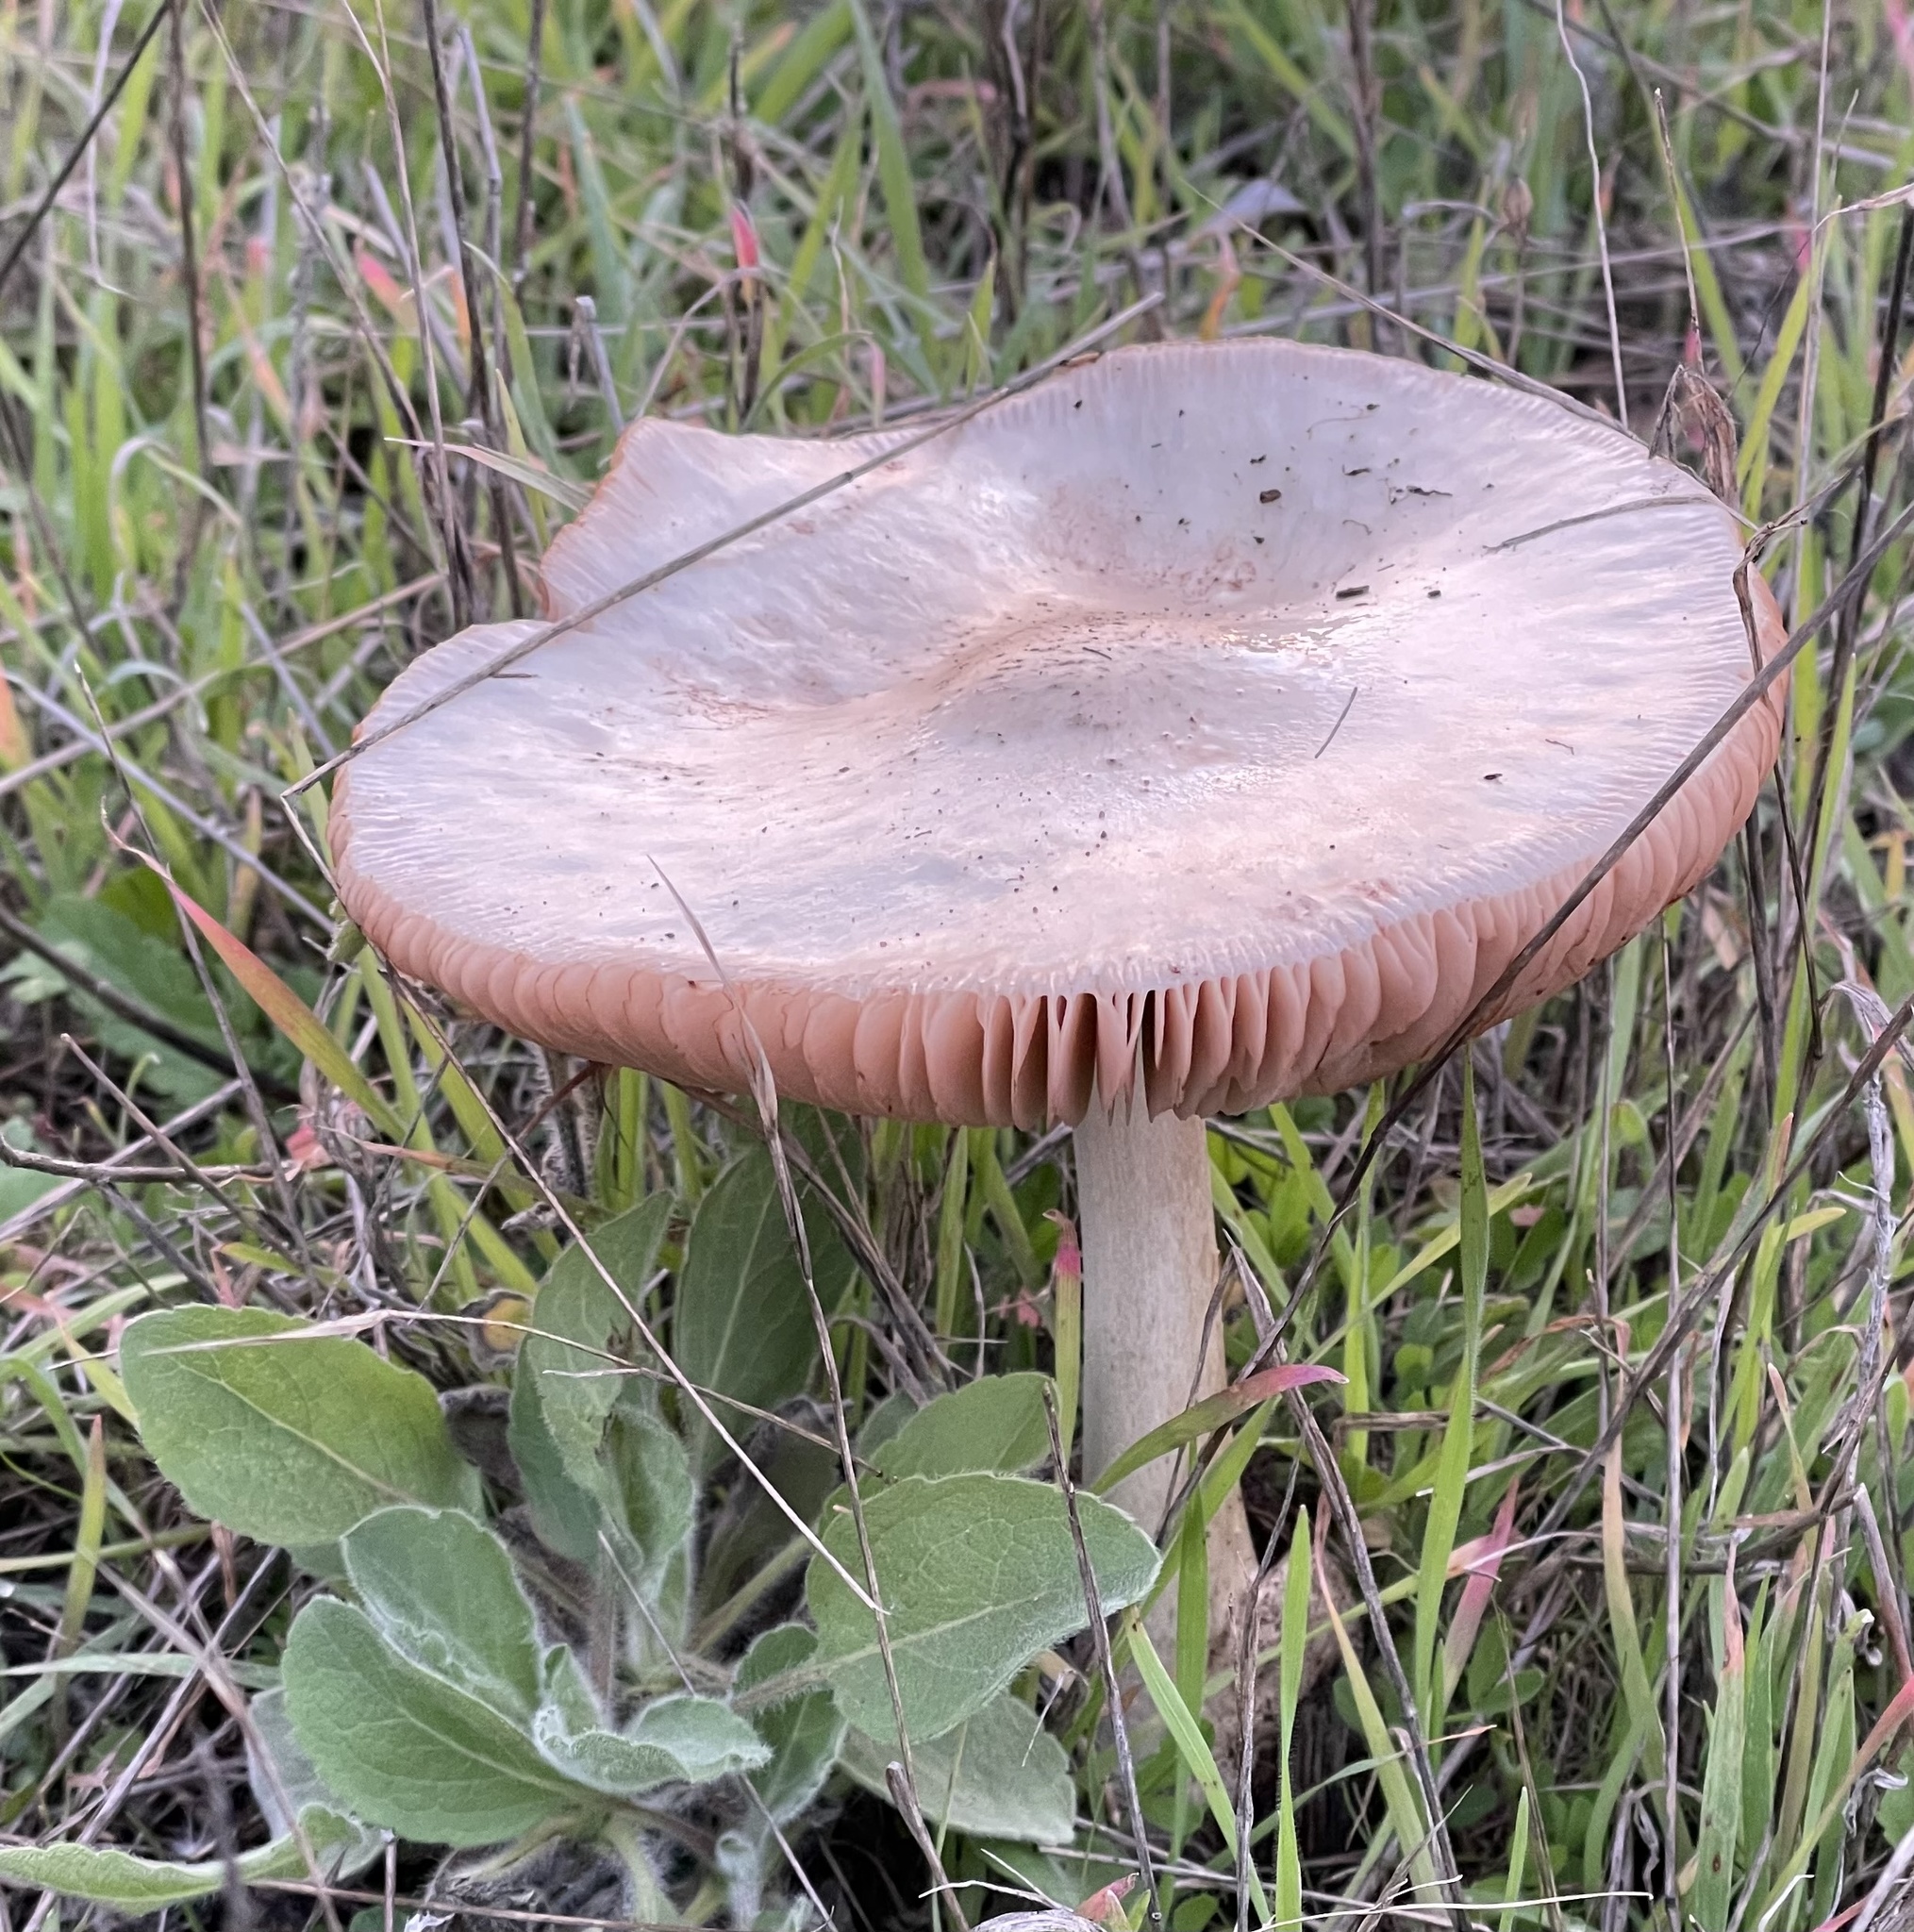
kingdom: Fungi
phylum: Basidiomycota
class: Agaricomycetes
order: Agaricales
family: Pluteaceae
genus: Volvopluteus
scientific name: Volvopluteus gloiocephalus
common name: Stubble rosegill
